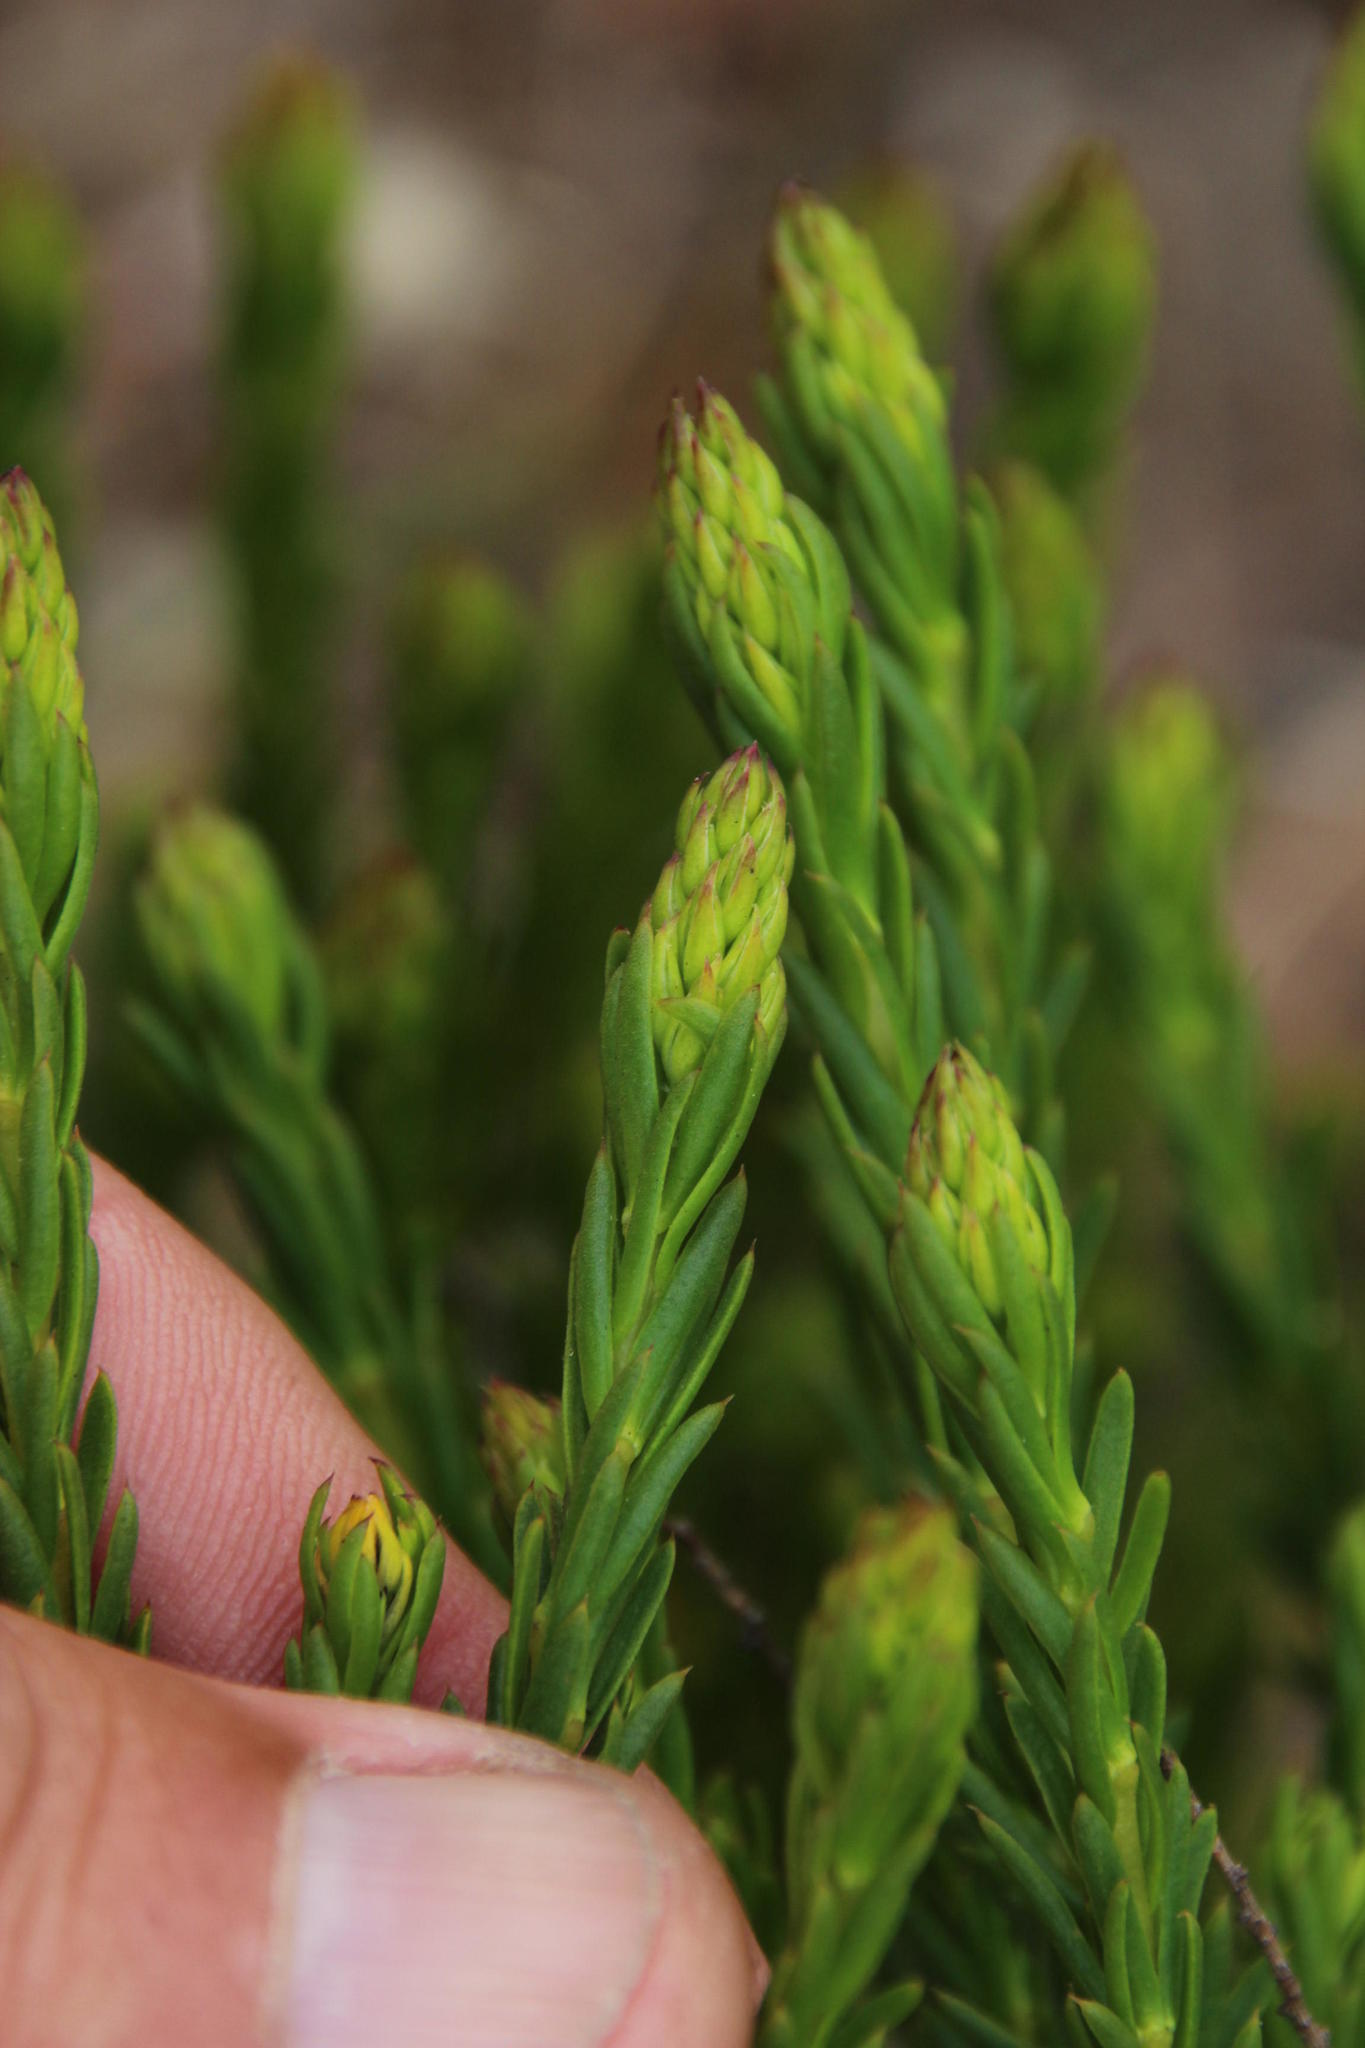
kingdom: Plantae
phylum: Tracheophyta
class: Magnoliopsida
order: Fabales
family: Fabaceae
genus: Aspalathus
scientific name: Aspalathus callosa
